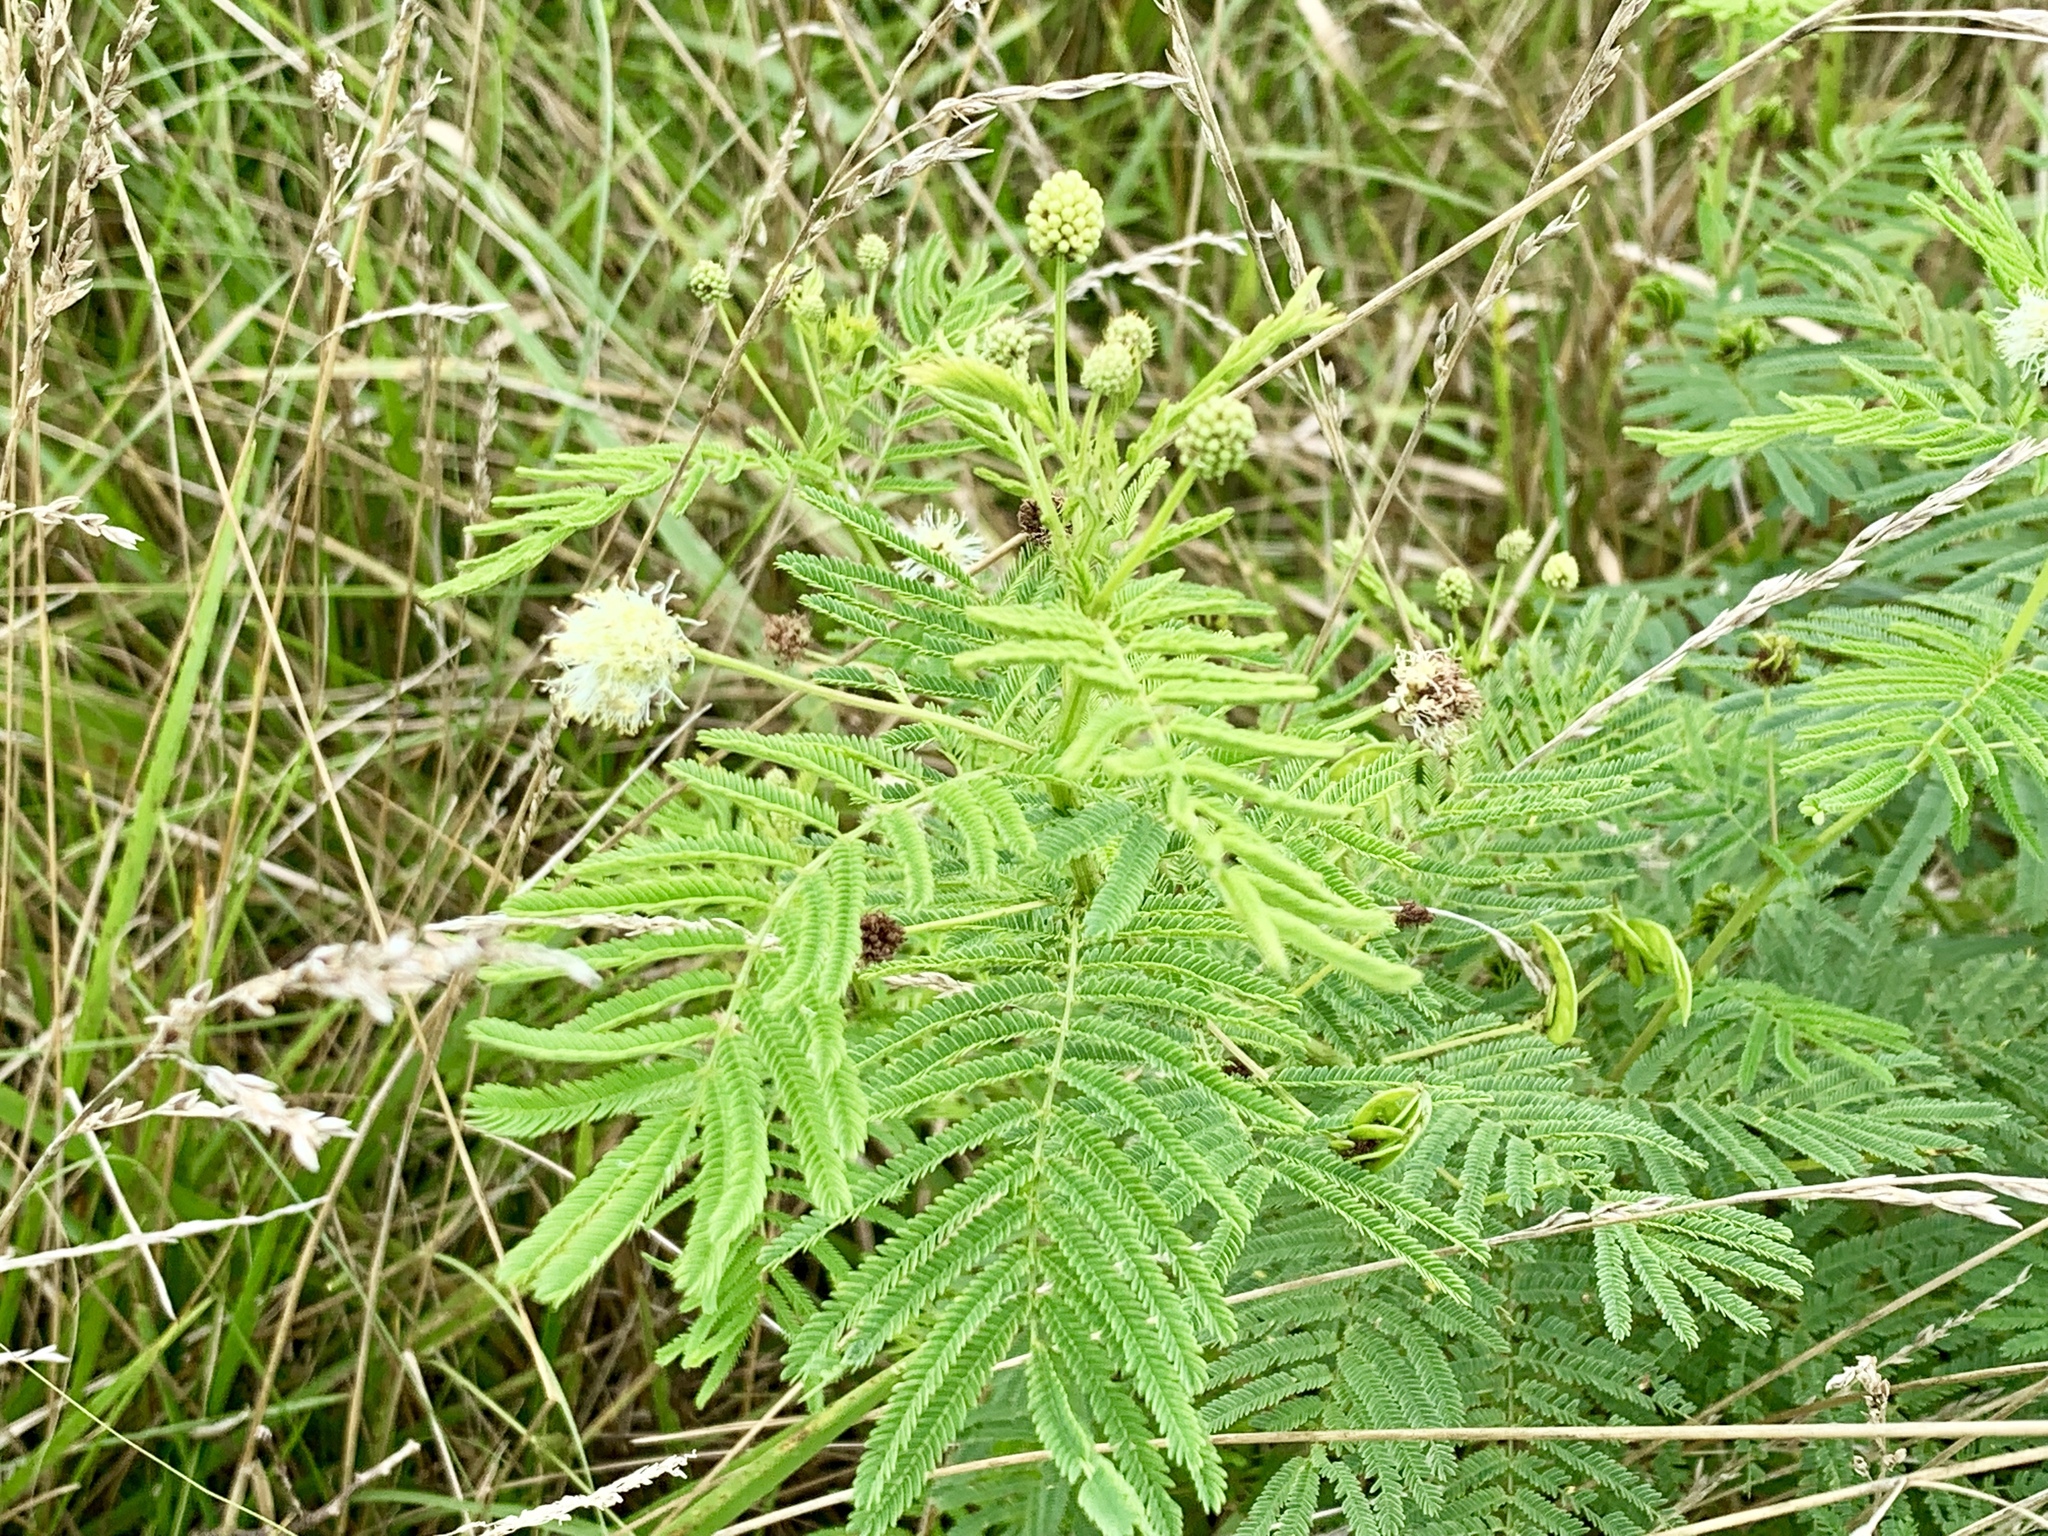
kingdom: Plantae
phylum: Tracheophyta
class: Magnoliopsida
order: Fabales
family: Fabaceae
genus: Desmanthus
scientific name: Desmanthus illinoensis
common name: Illinois bundle-flower
